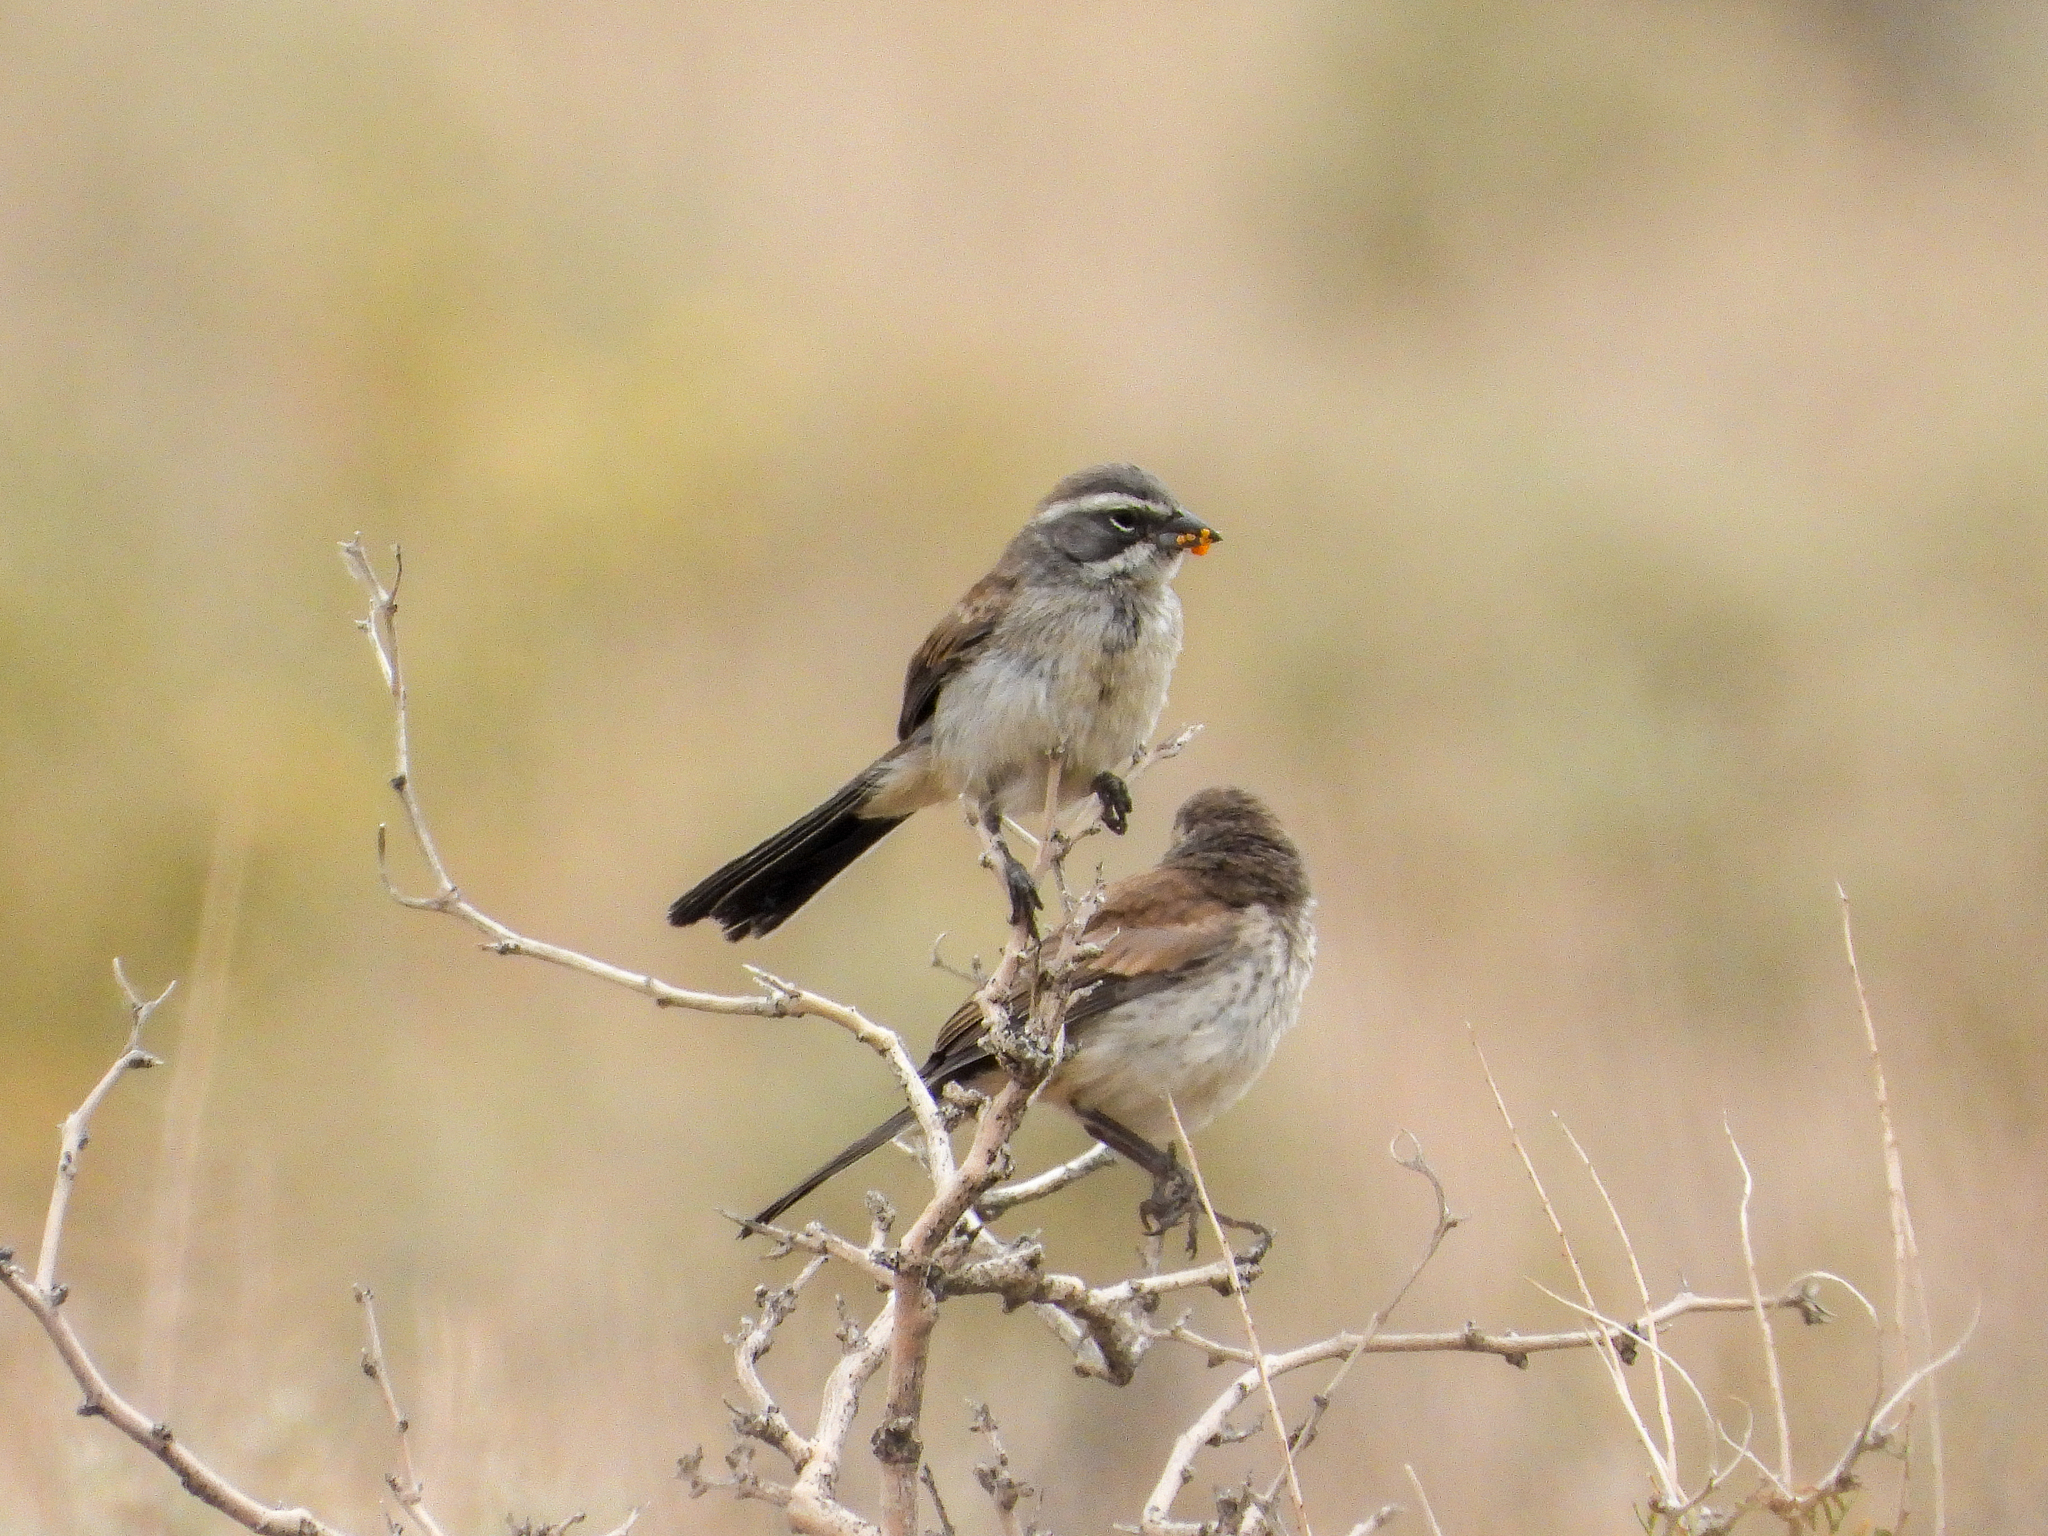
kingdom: Animalia
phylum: Chordata
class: Aves
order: Passeriformes
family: Passerellidae
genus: Amphispiza
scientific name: Amphispiza bilineata
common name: Black-throated sparrow
